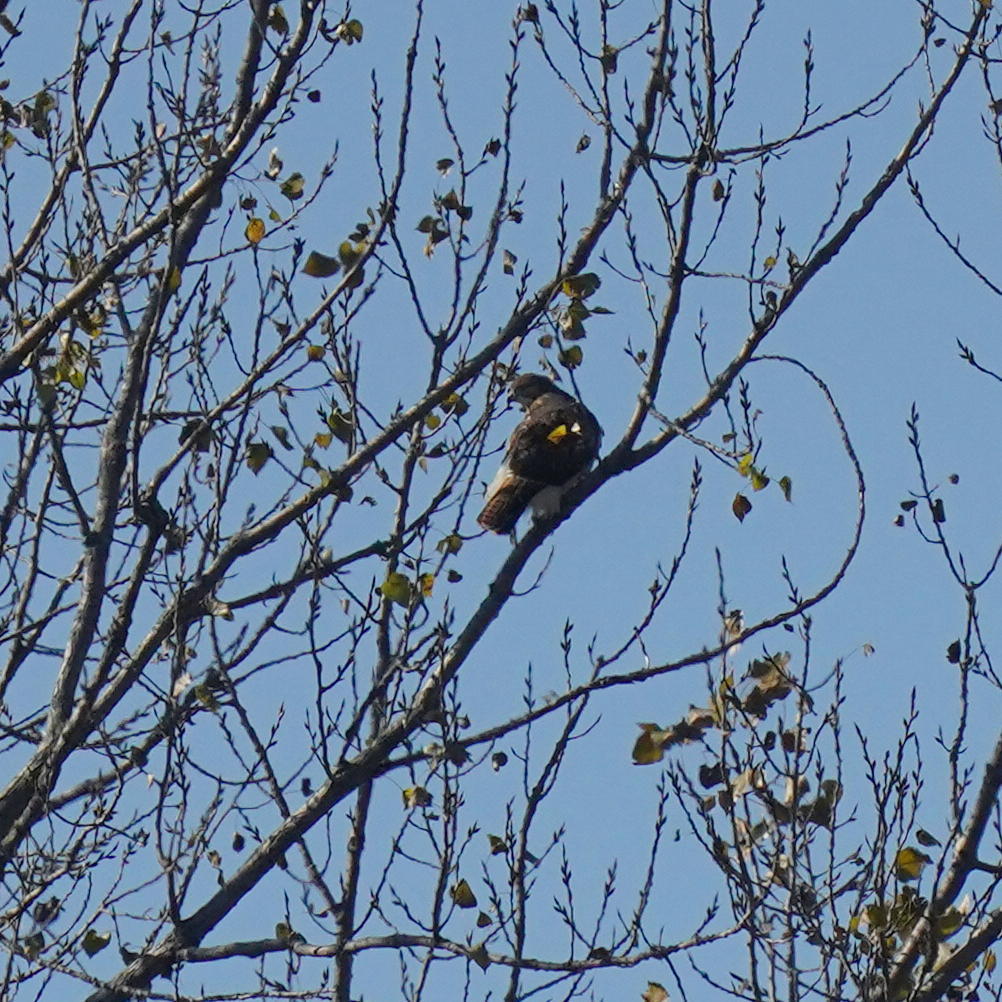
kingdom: Animalia
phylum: Chordata
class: Aves
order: Accipitriformes
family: Accipitridae
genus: Buteo
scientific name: Buteo jamaicensis
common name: Red-tailed hawk
